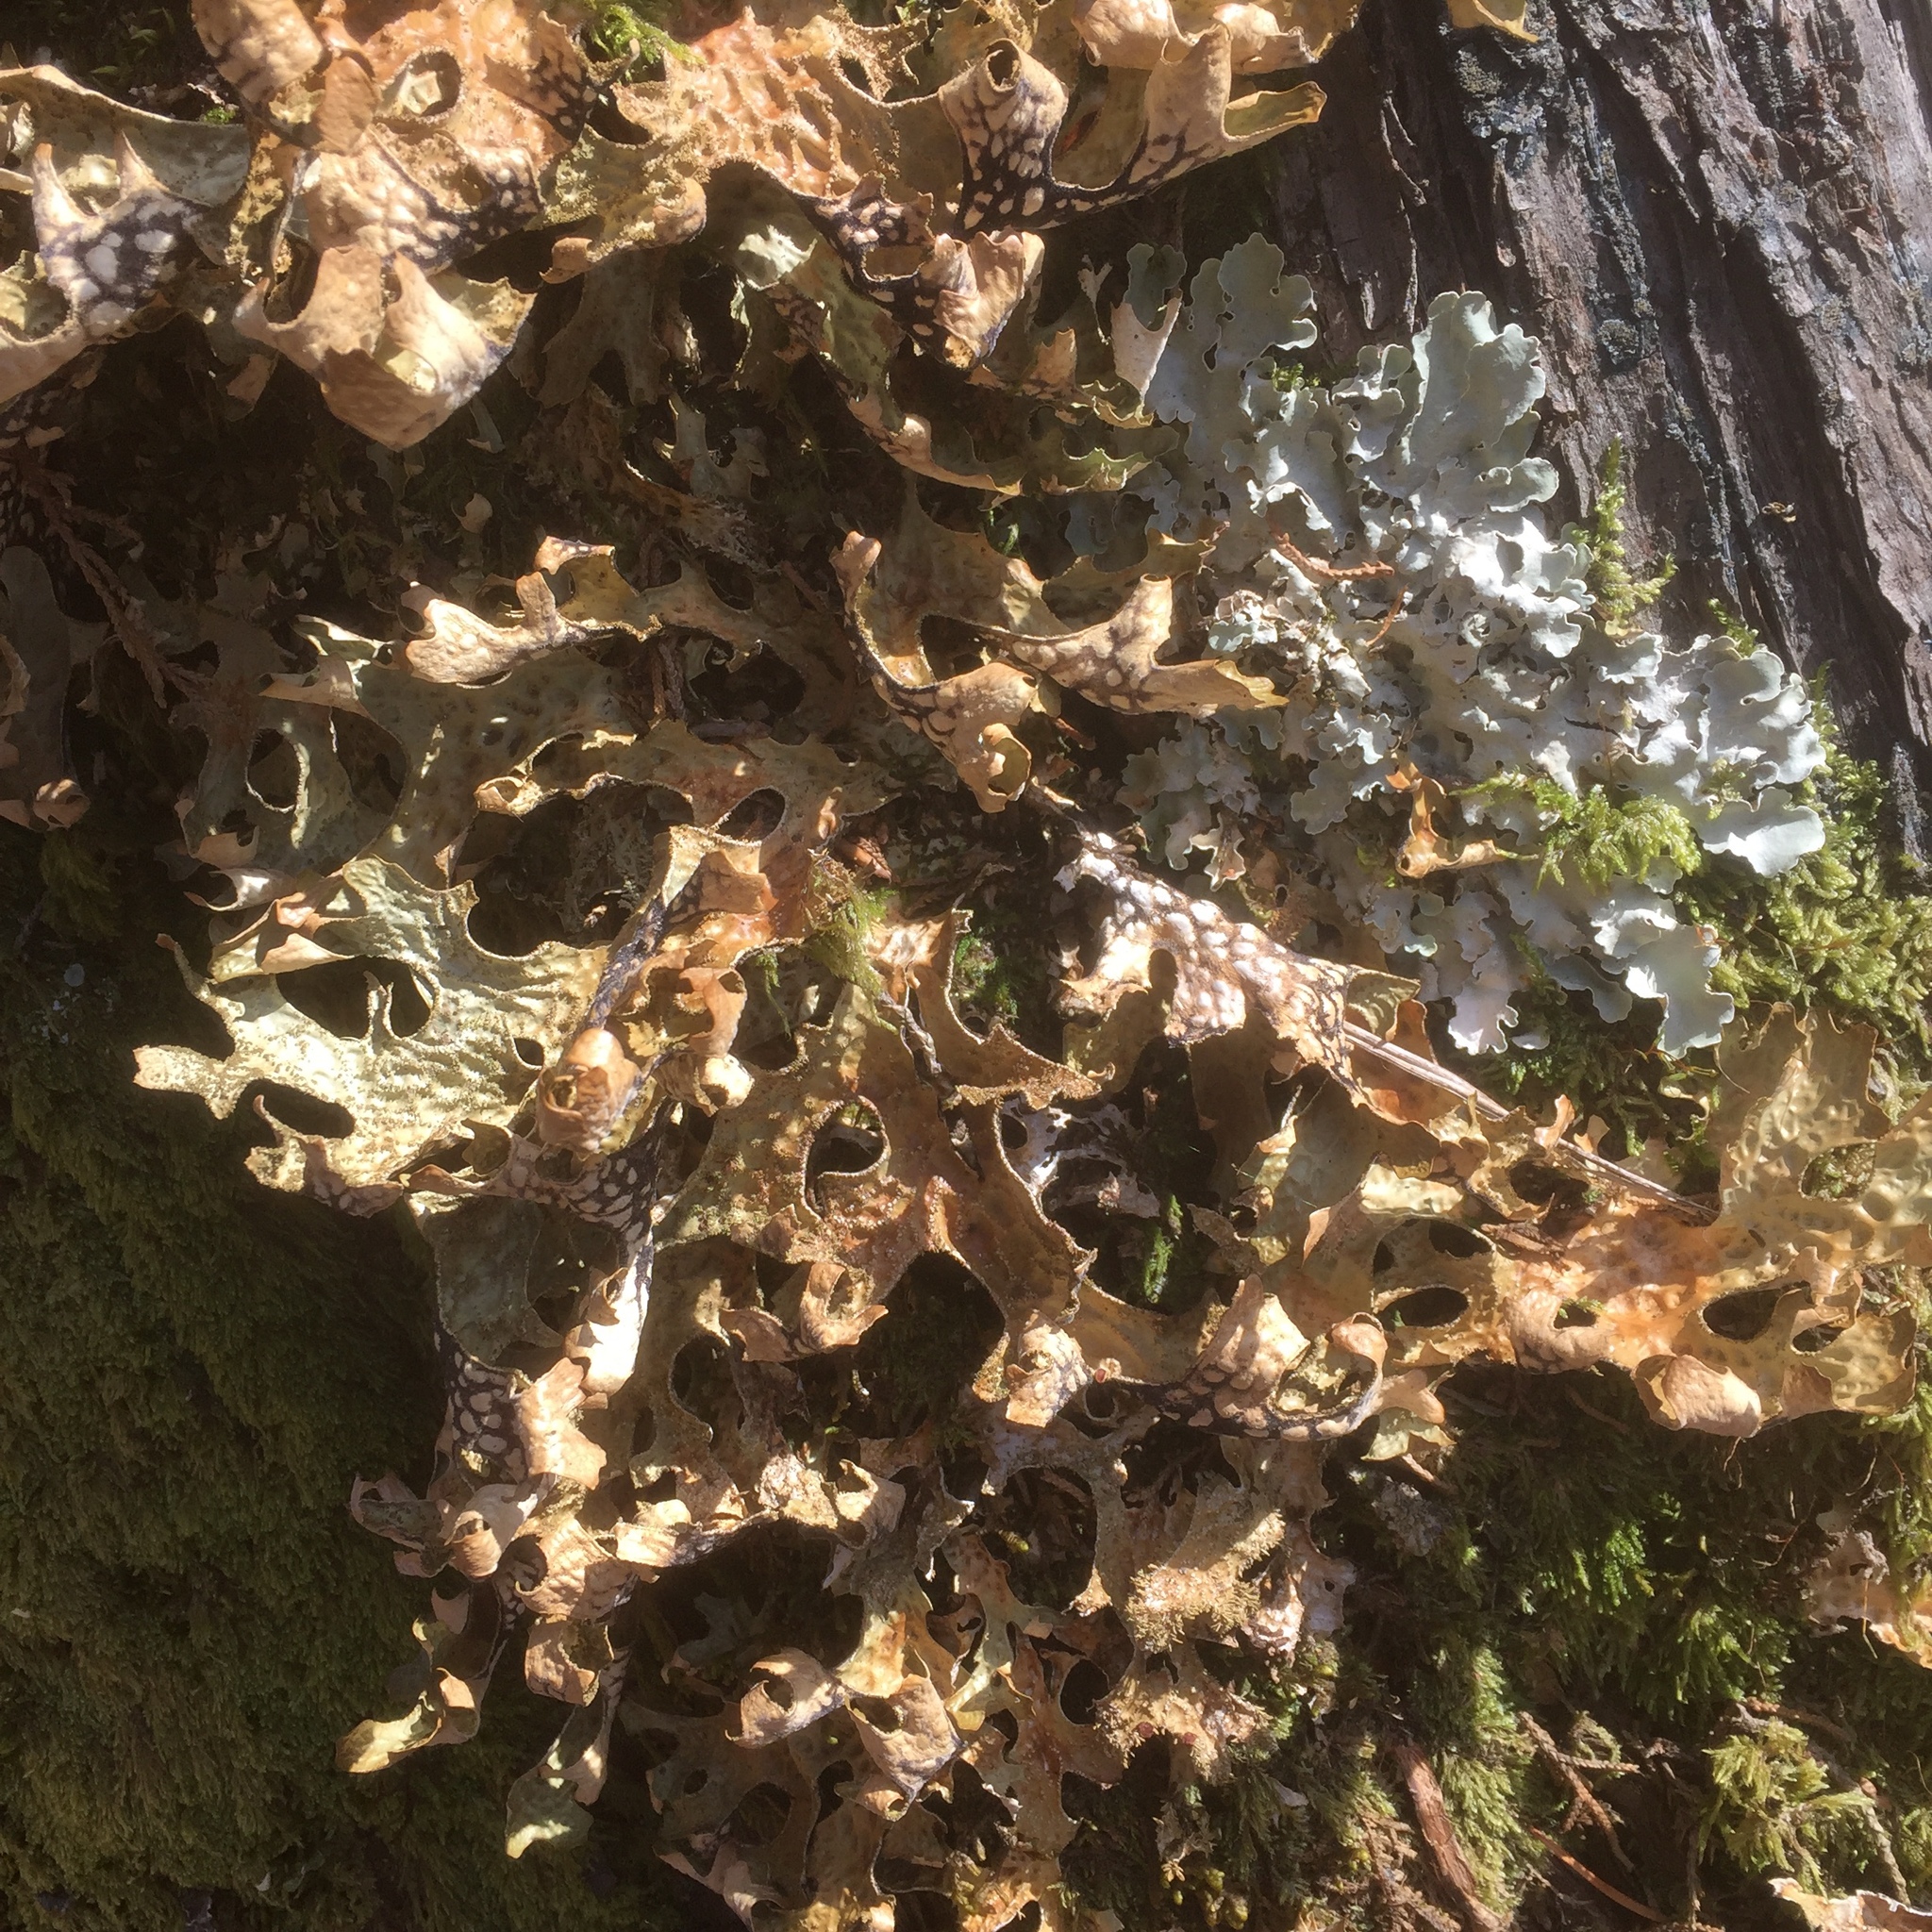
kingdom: Fungi
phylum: Ascomycota
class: Lecanoromycetes
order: Peltigerales
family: Lobariaceae
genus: Lobaria
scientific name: Lobaria pulmonaria
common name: Lungwort
